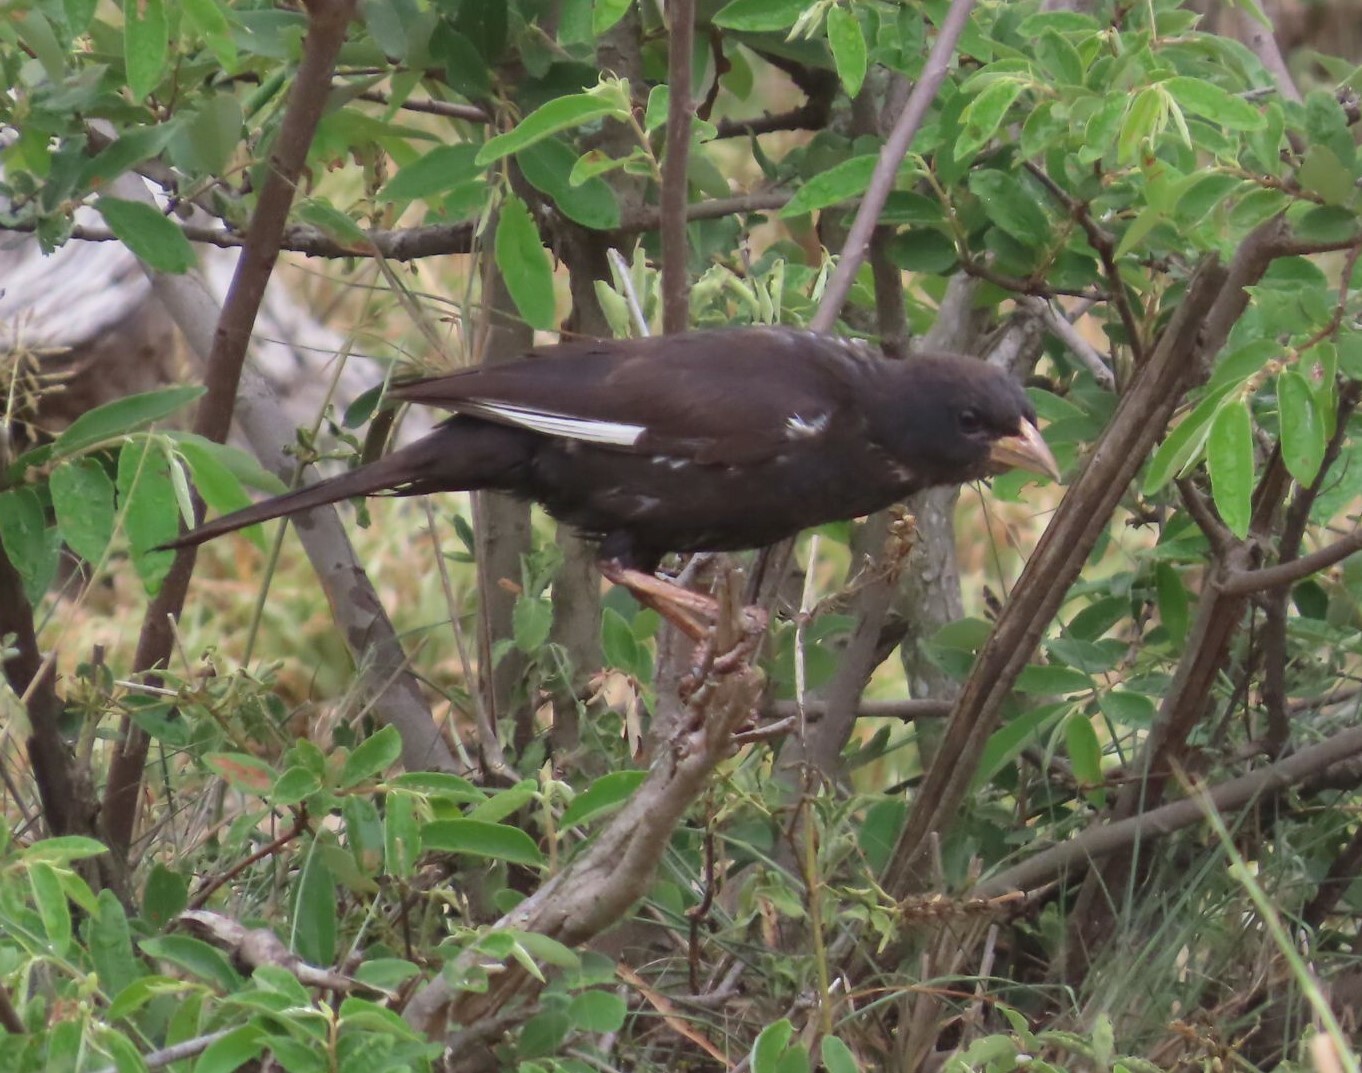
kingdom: Animalia
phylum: Chordata
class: Aves
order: Passeriformes
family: Ploceidae
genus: Bubalornis
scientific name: Bubalornis niger
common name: Red-billed buffalo weaver
